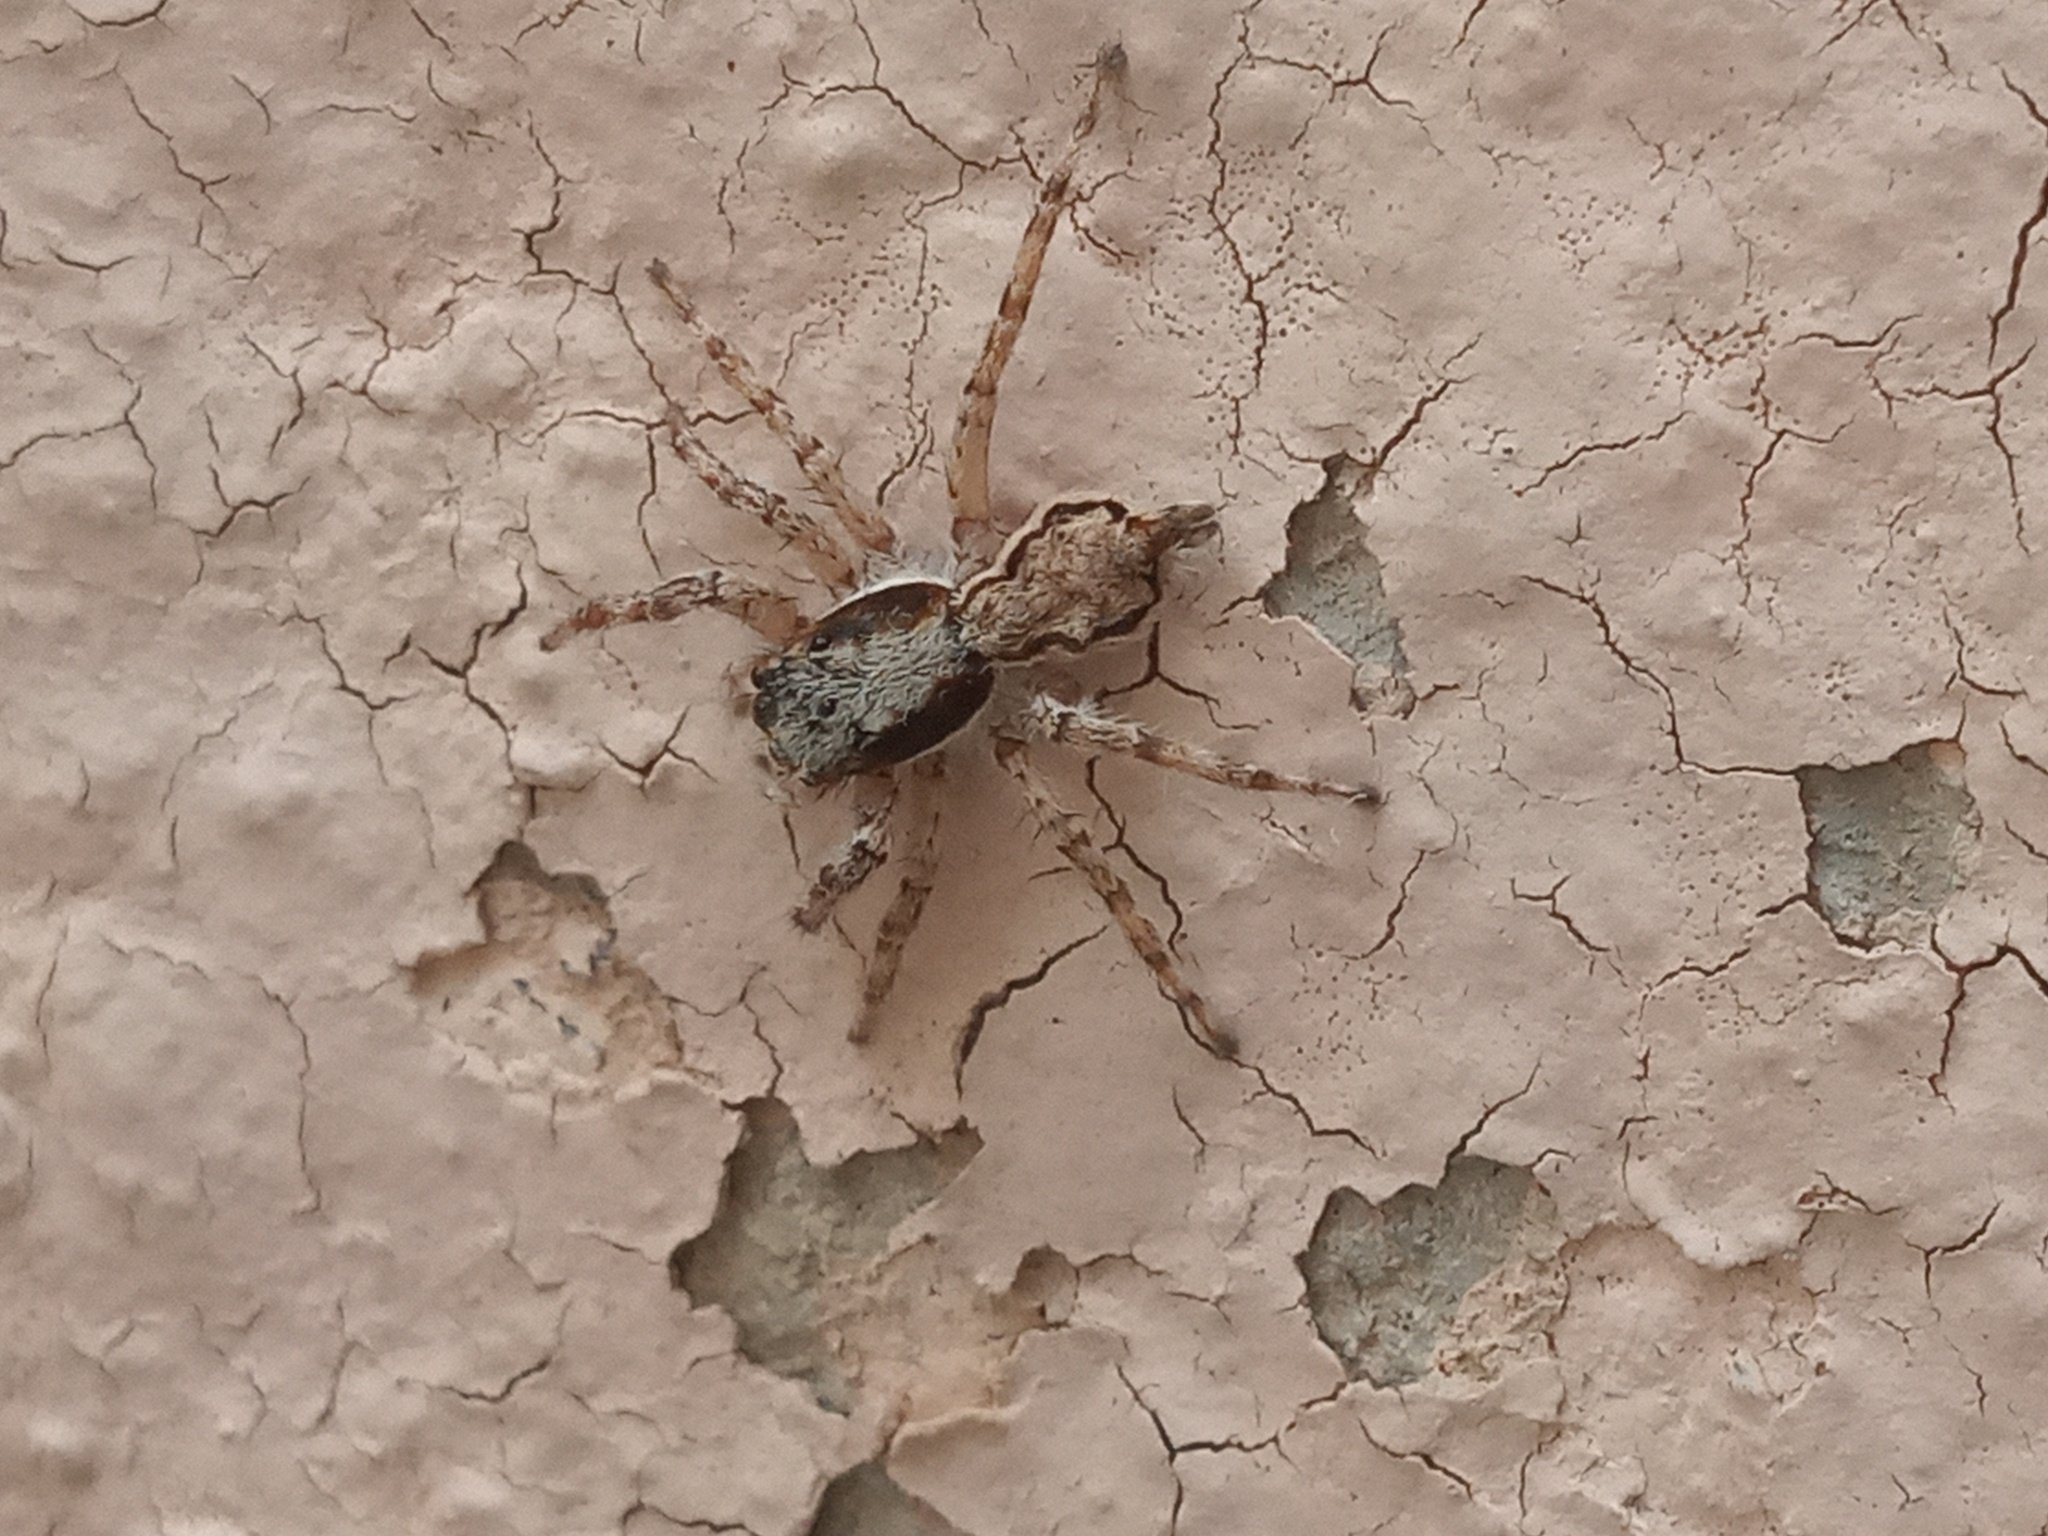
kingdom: Animalia
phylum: Arthropoda
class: Arachnida
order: Araneae
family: Salticidae
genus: Menemerus
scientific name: Menemerus bivittatus
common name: Gray wall jumper
